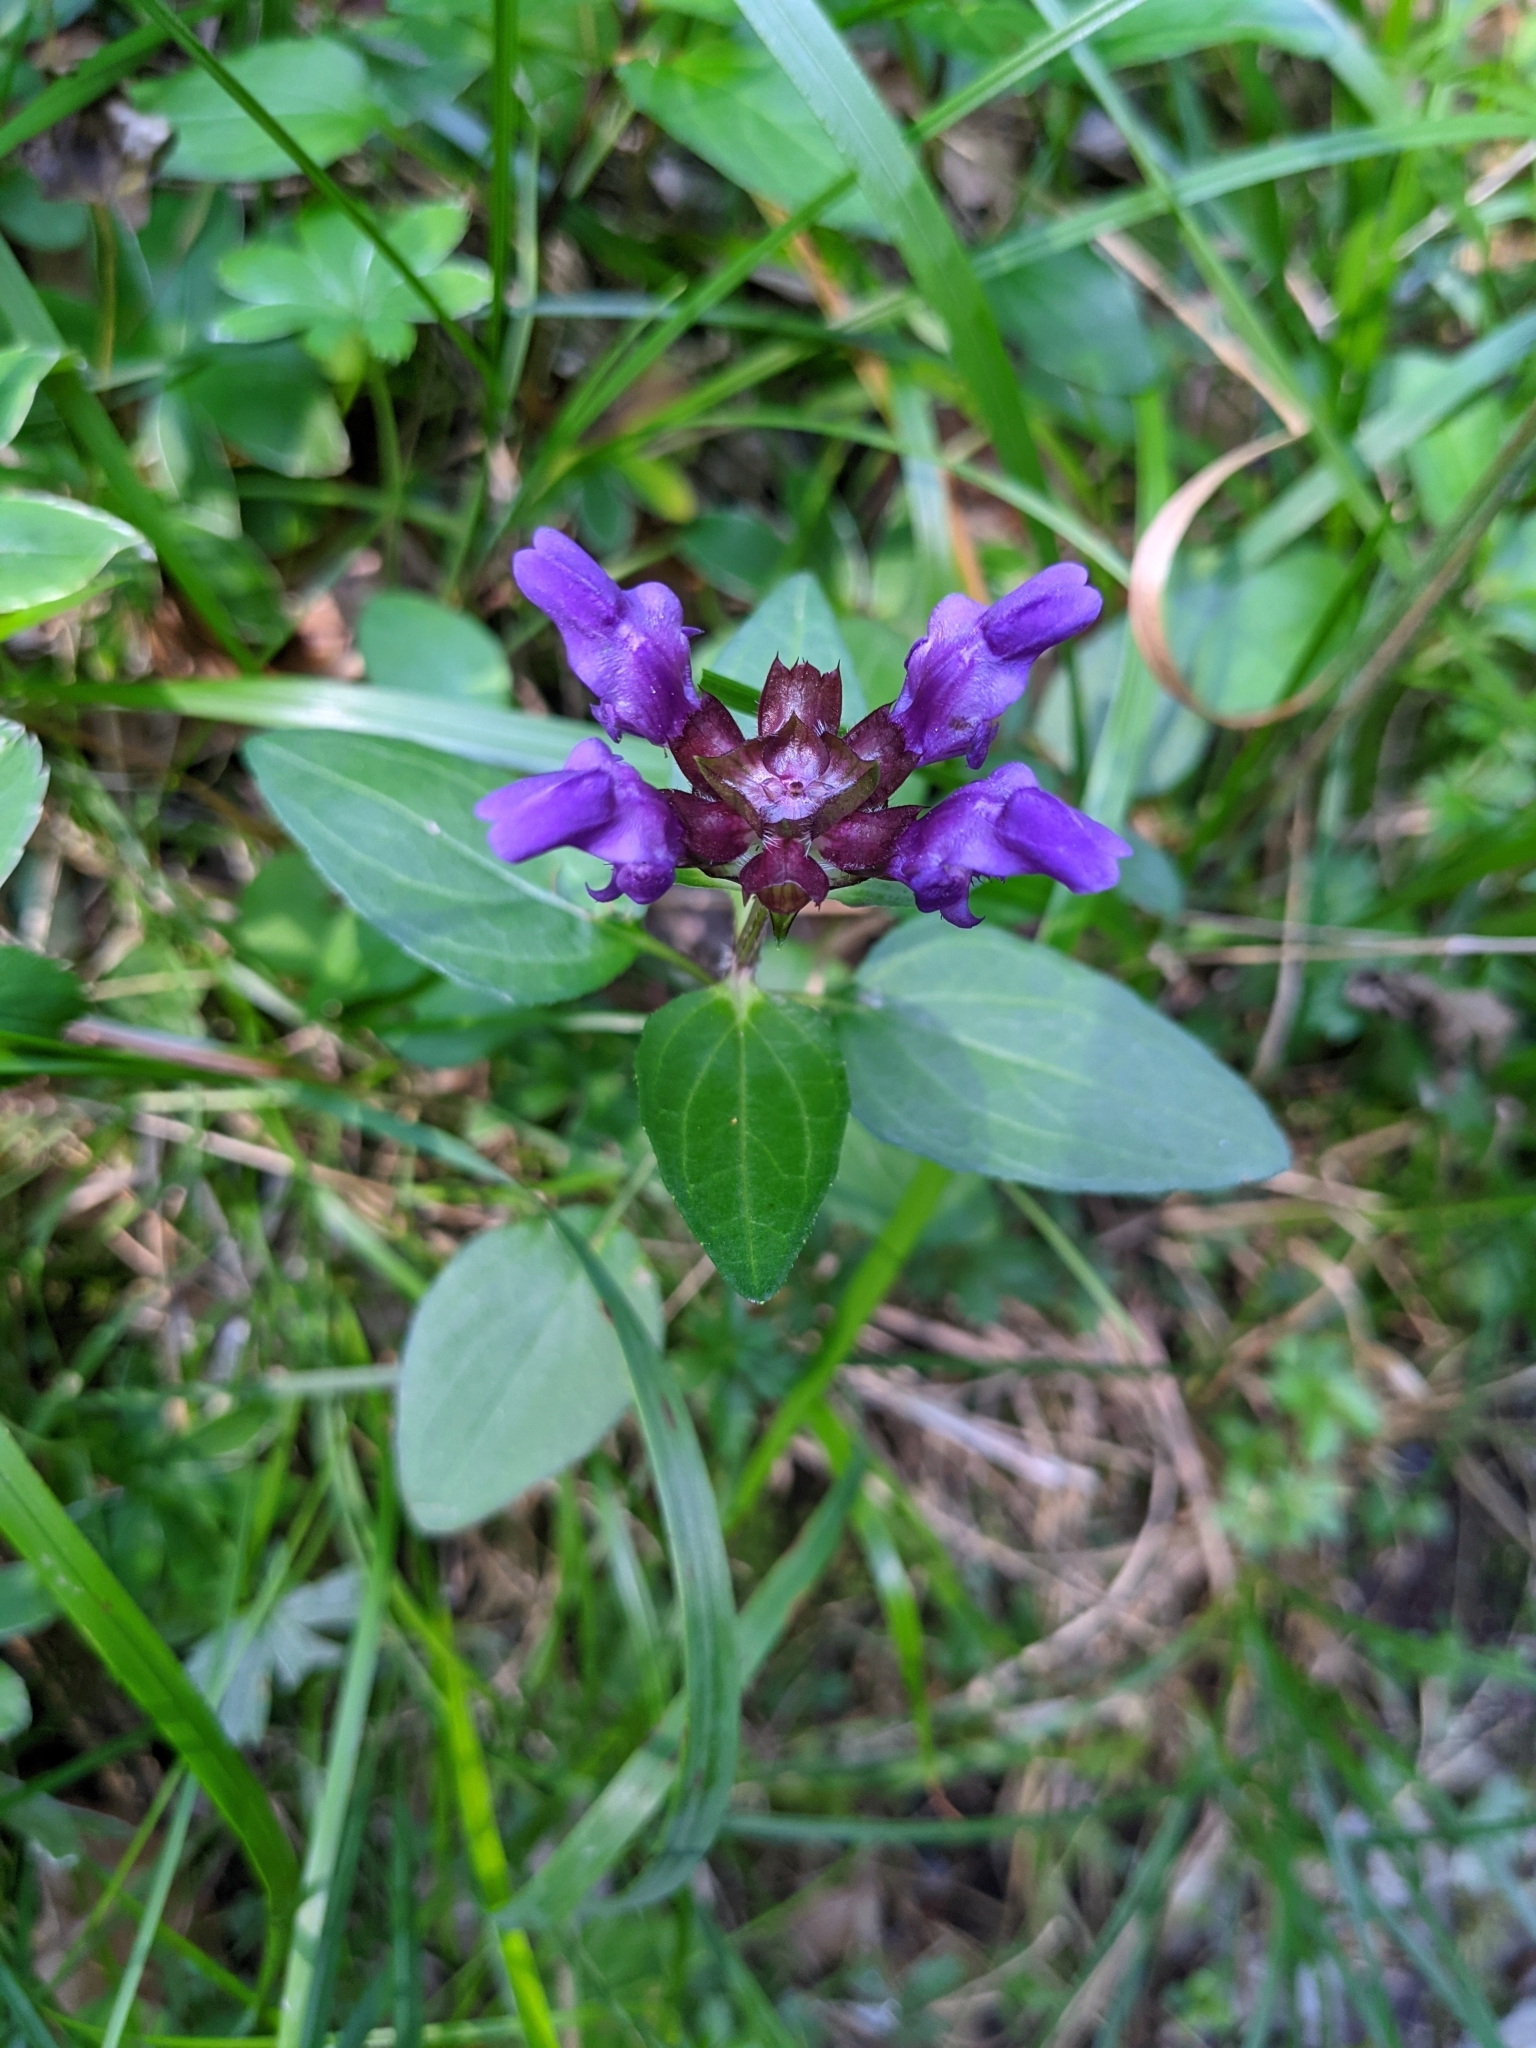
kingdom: Plantae
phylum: Tracheophyta
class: Magnoliopsida
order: Lamiales
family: Lamiaceae
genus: Prunella
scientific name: Prunella grandiflora
